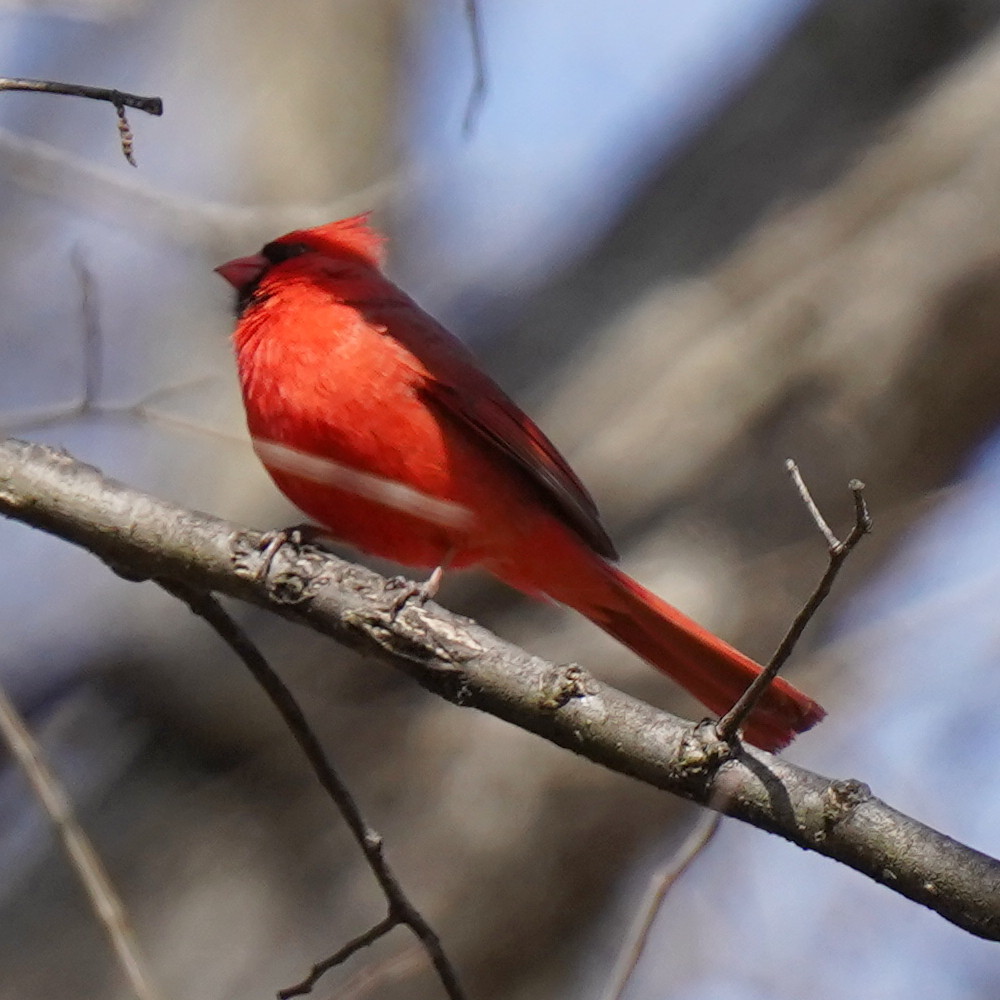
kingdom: Animalia
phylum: Chordata
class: Aves
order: Passeriformes
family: Cardinalidae
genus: Cardinalis
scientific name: Cardinalis cardinalis
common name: Northern cardinal
